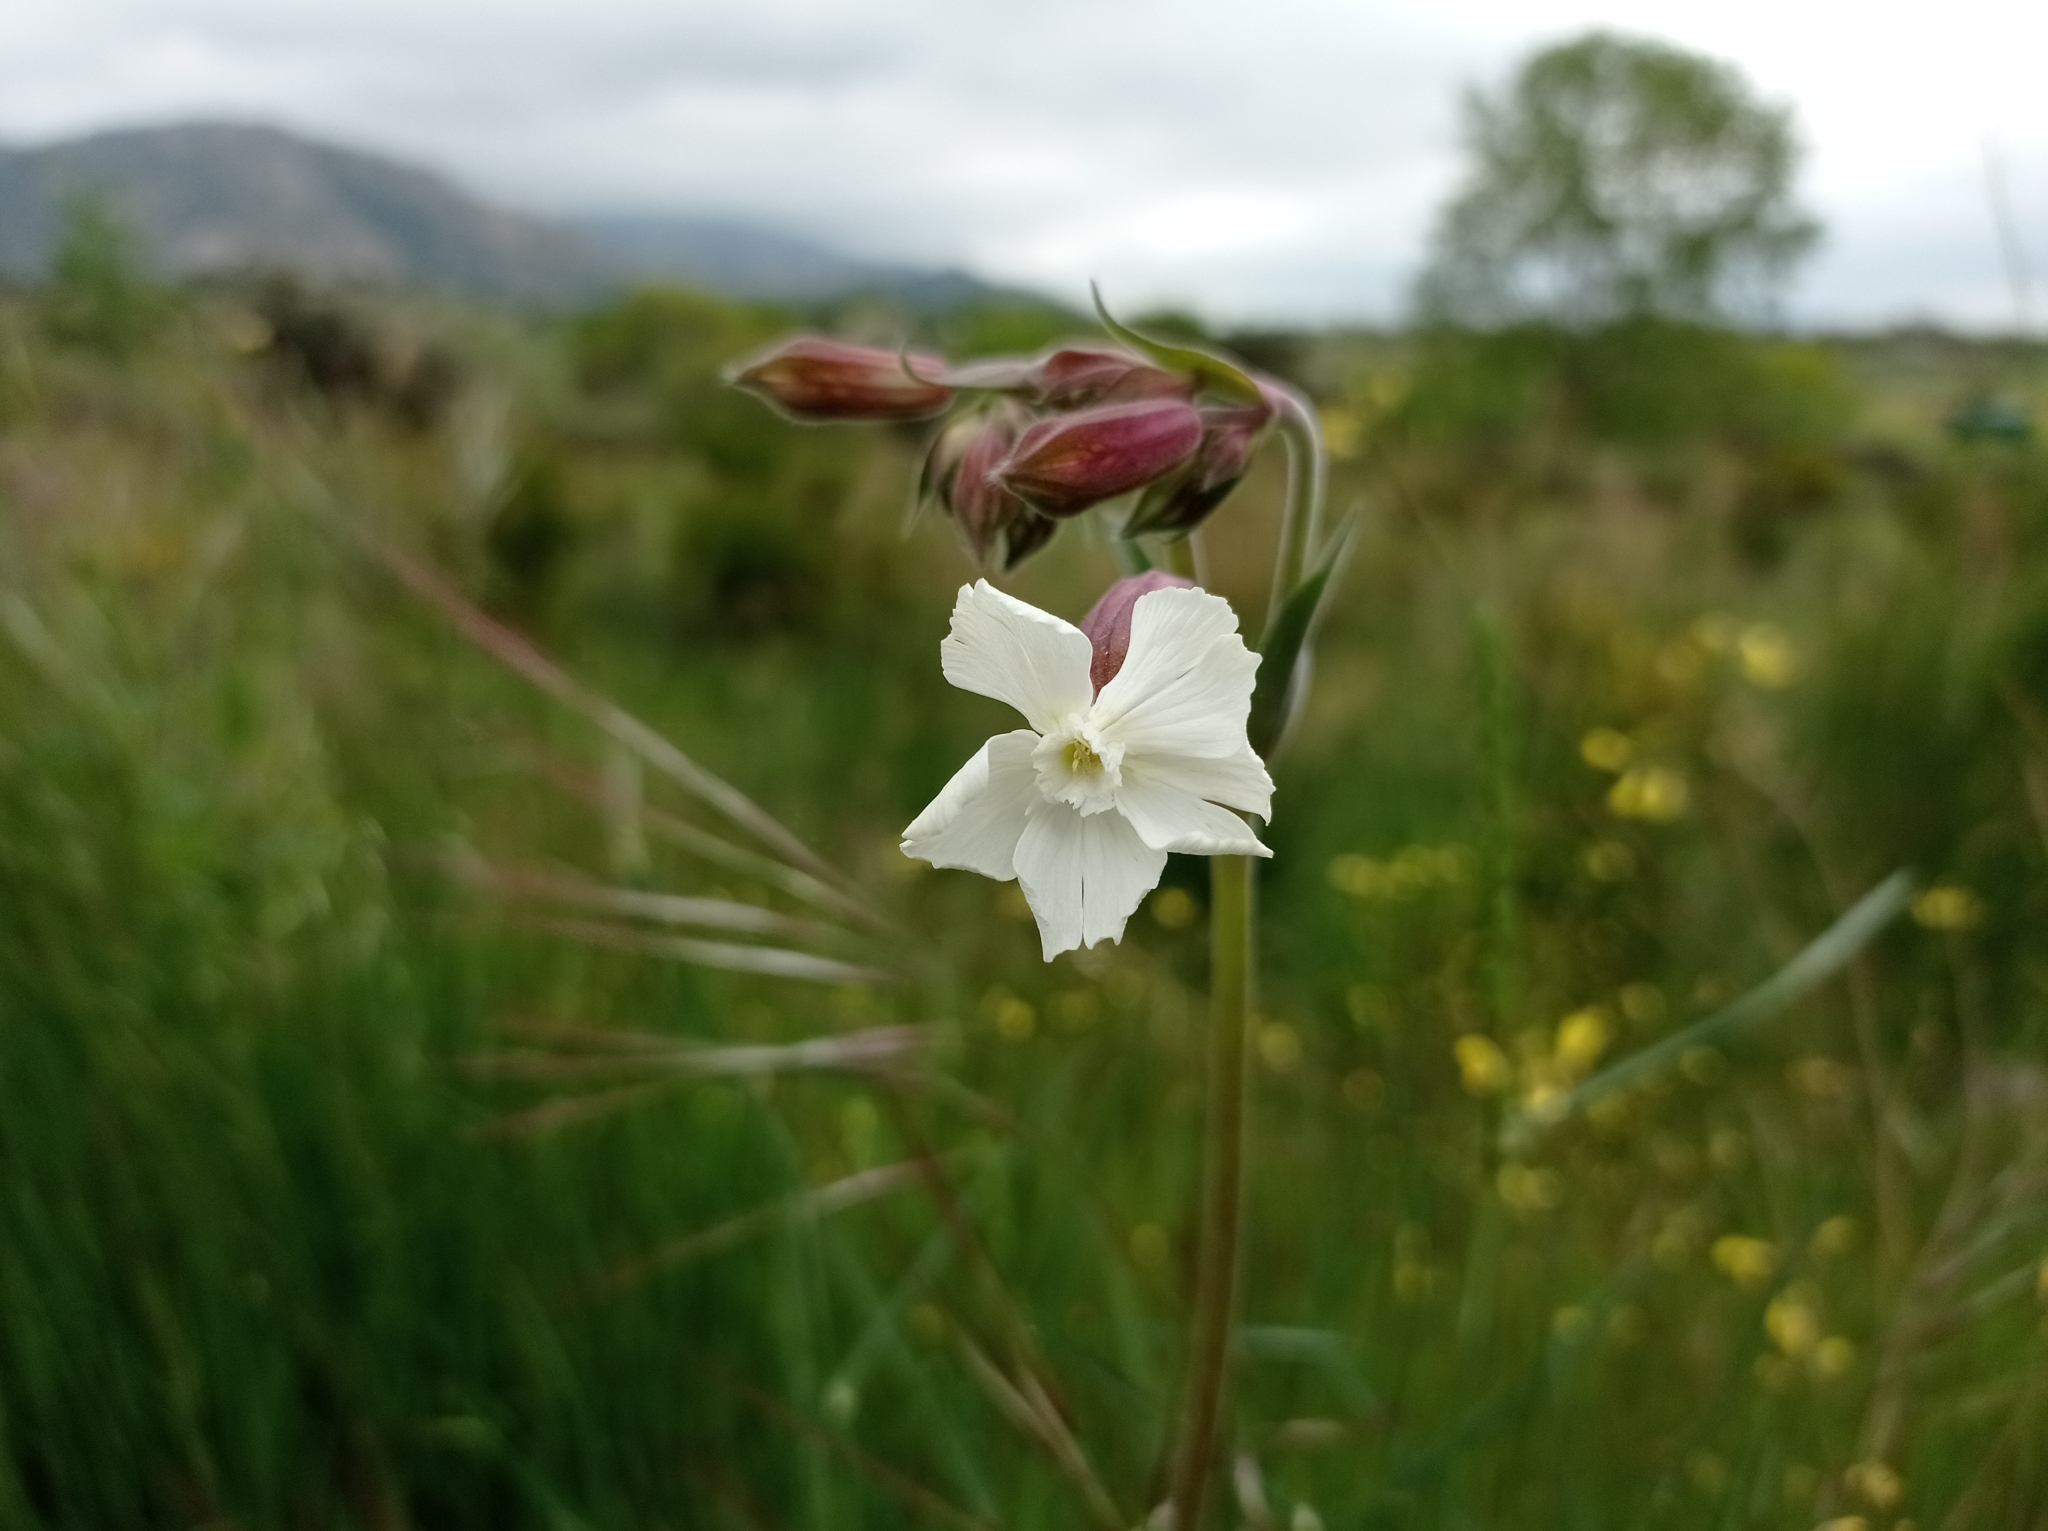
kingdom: Plantae
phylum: Tracheophyta
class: Magnoliopsida
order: Caryophyllales
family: Caryophyllaceae
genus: Silene
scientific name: Silene latifolia
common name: White campion
